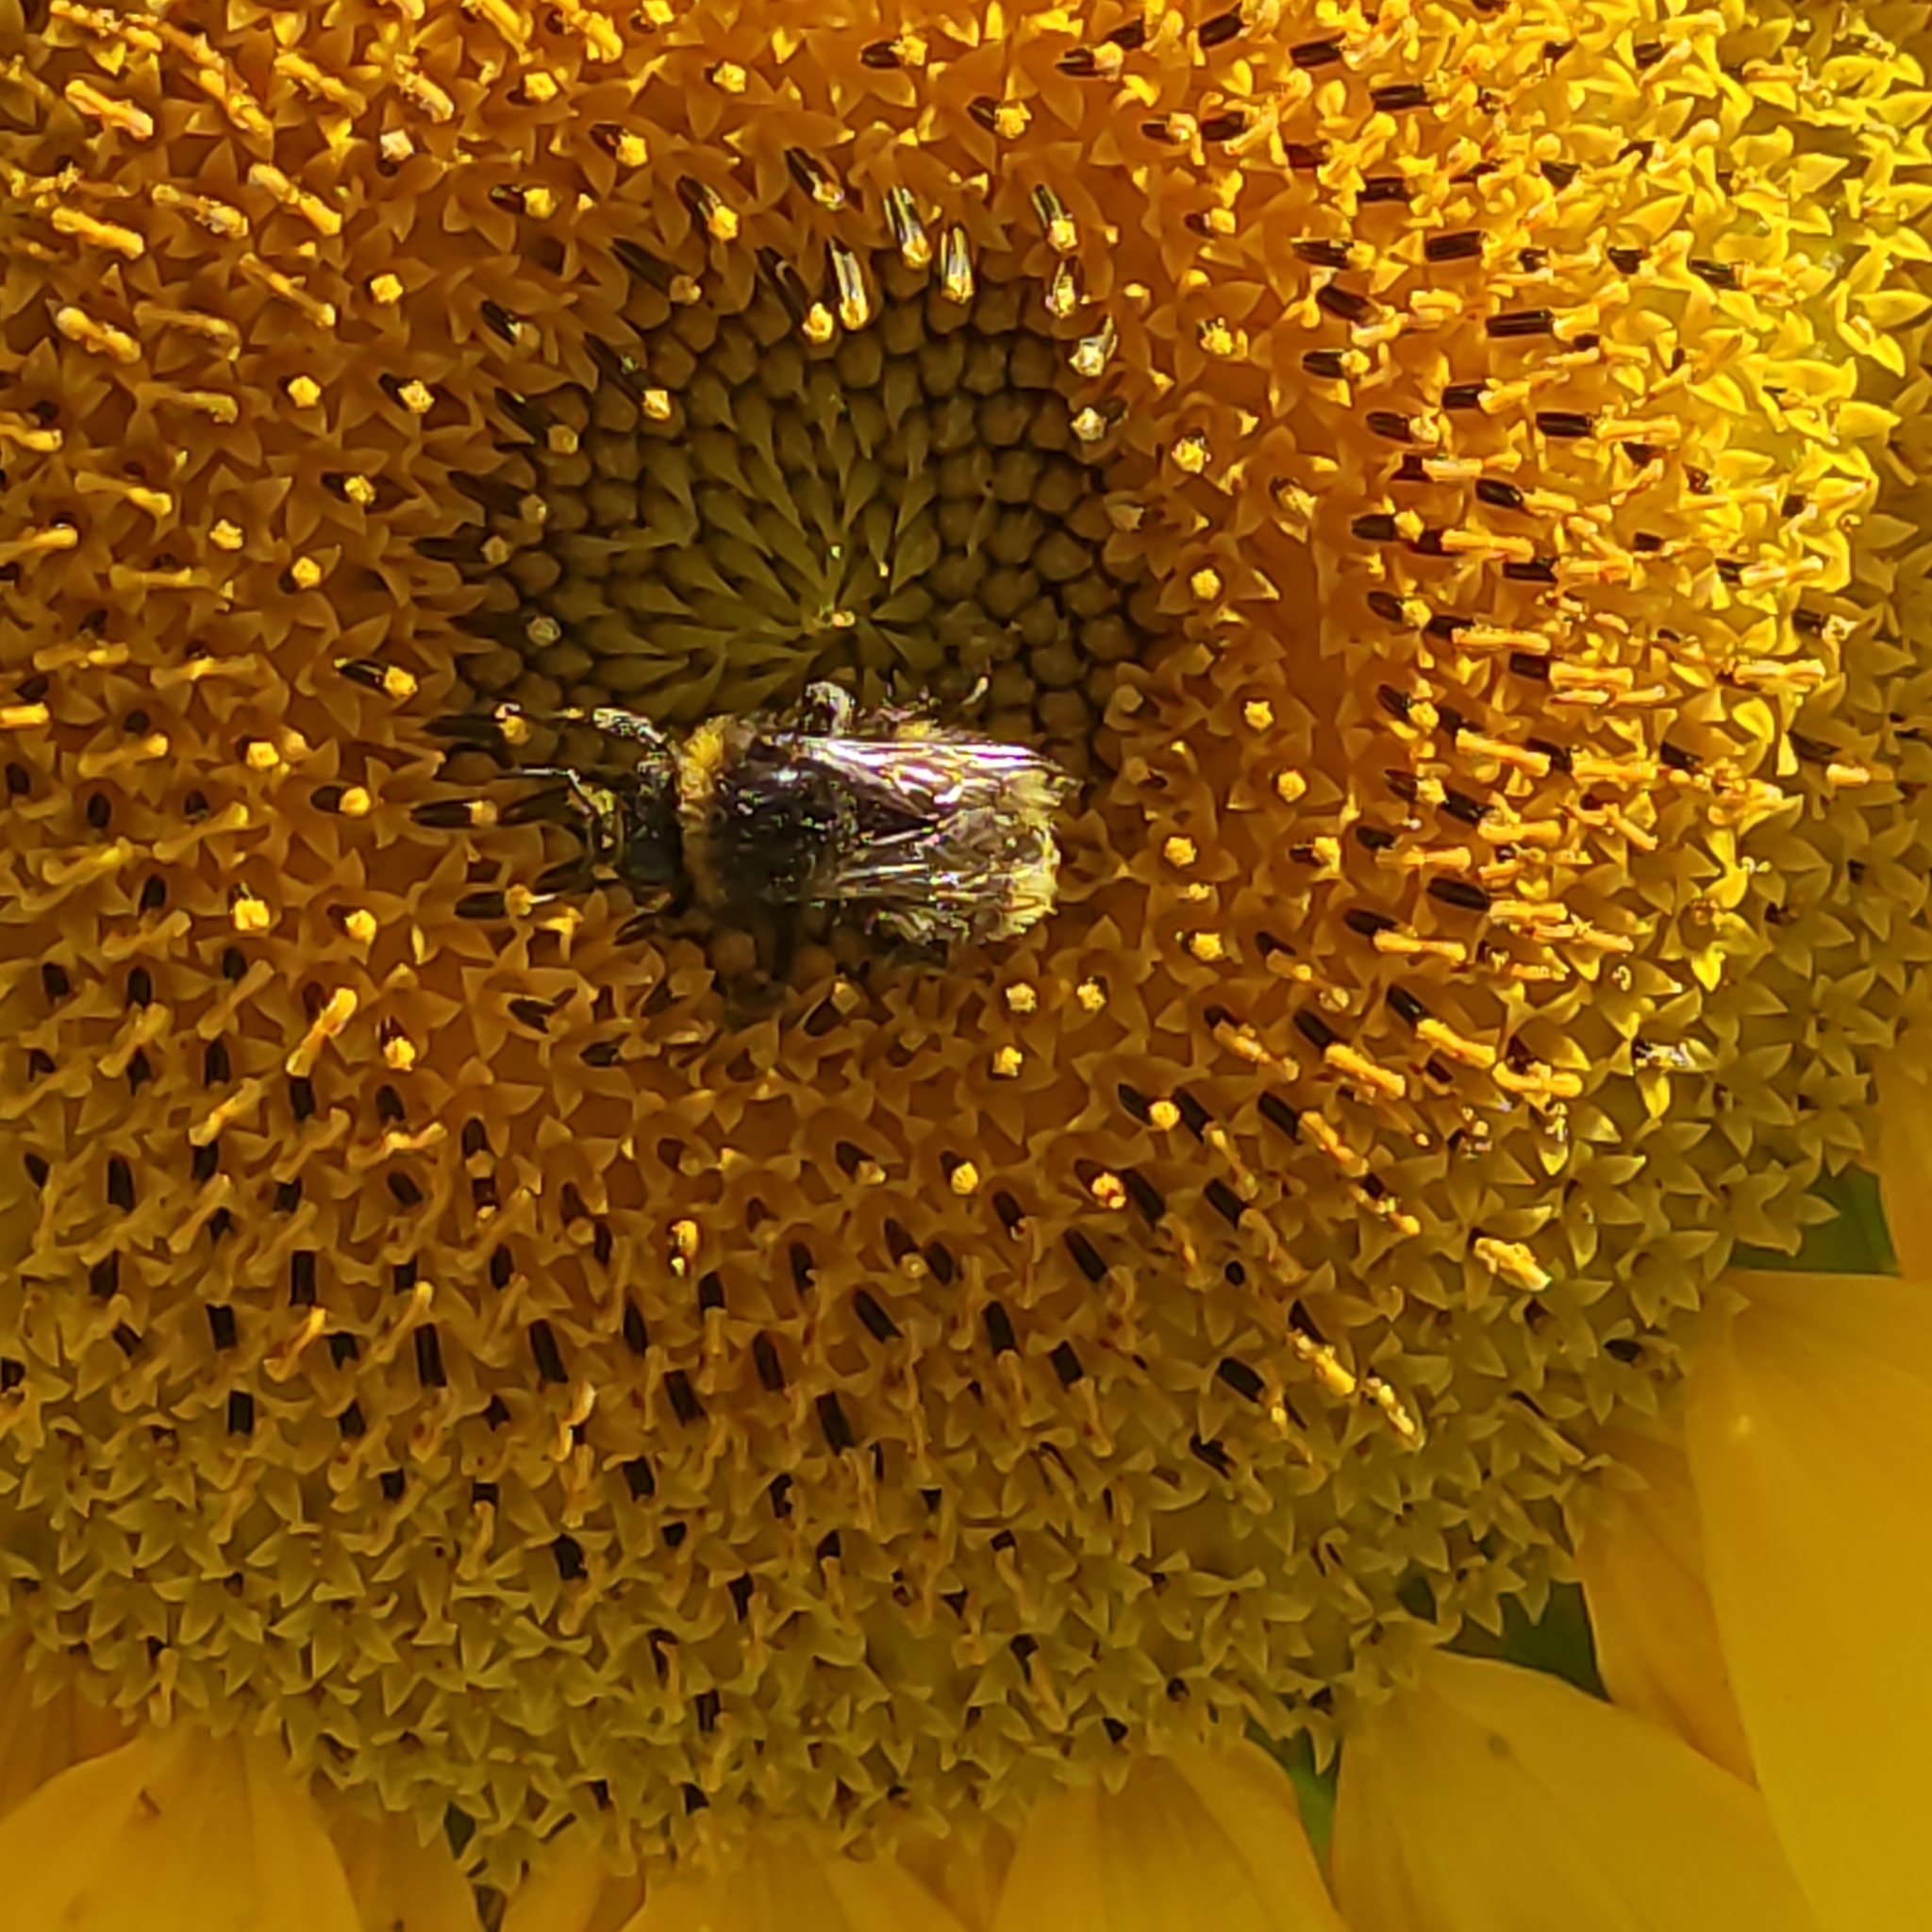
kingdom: Animalia
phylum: Arthropoda
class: Insecta
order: Hymenoptera
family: Apidae
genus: Bombus
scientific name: Bombus terrestris
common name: Buff-tailed bumblebee
